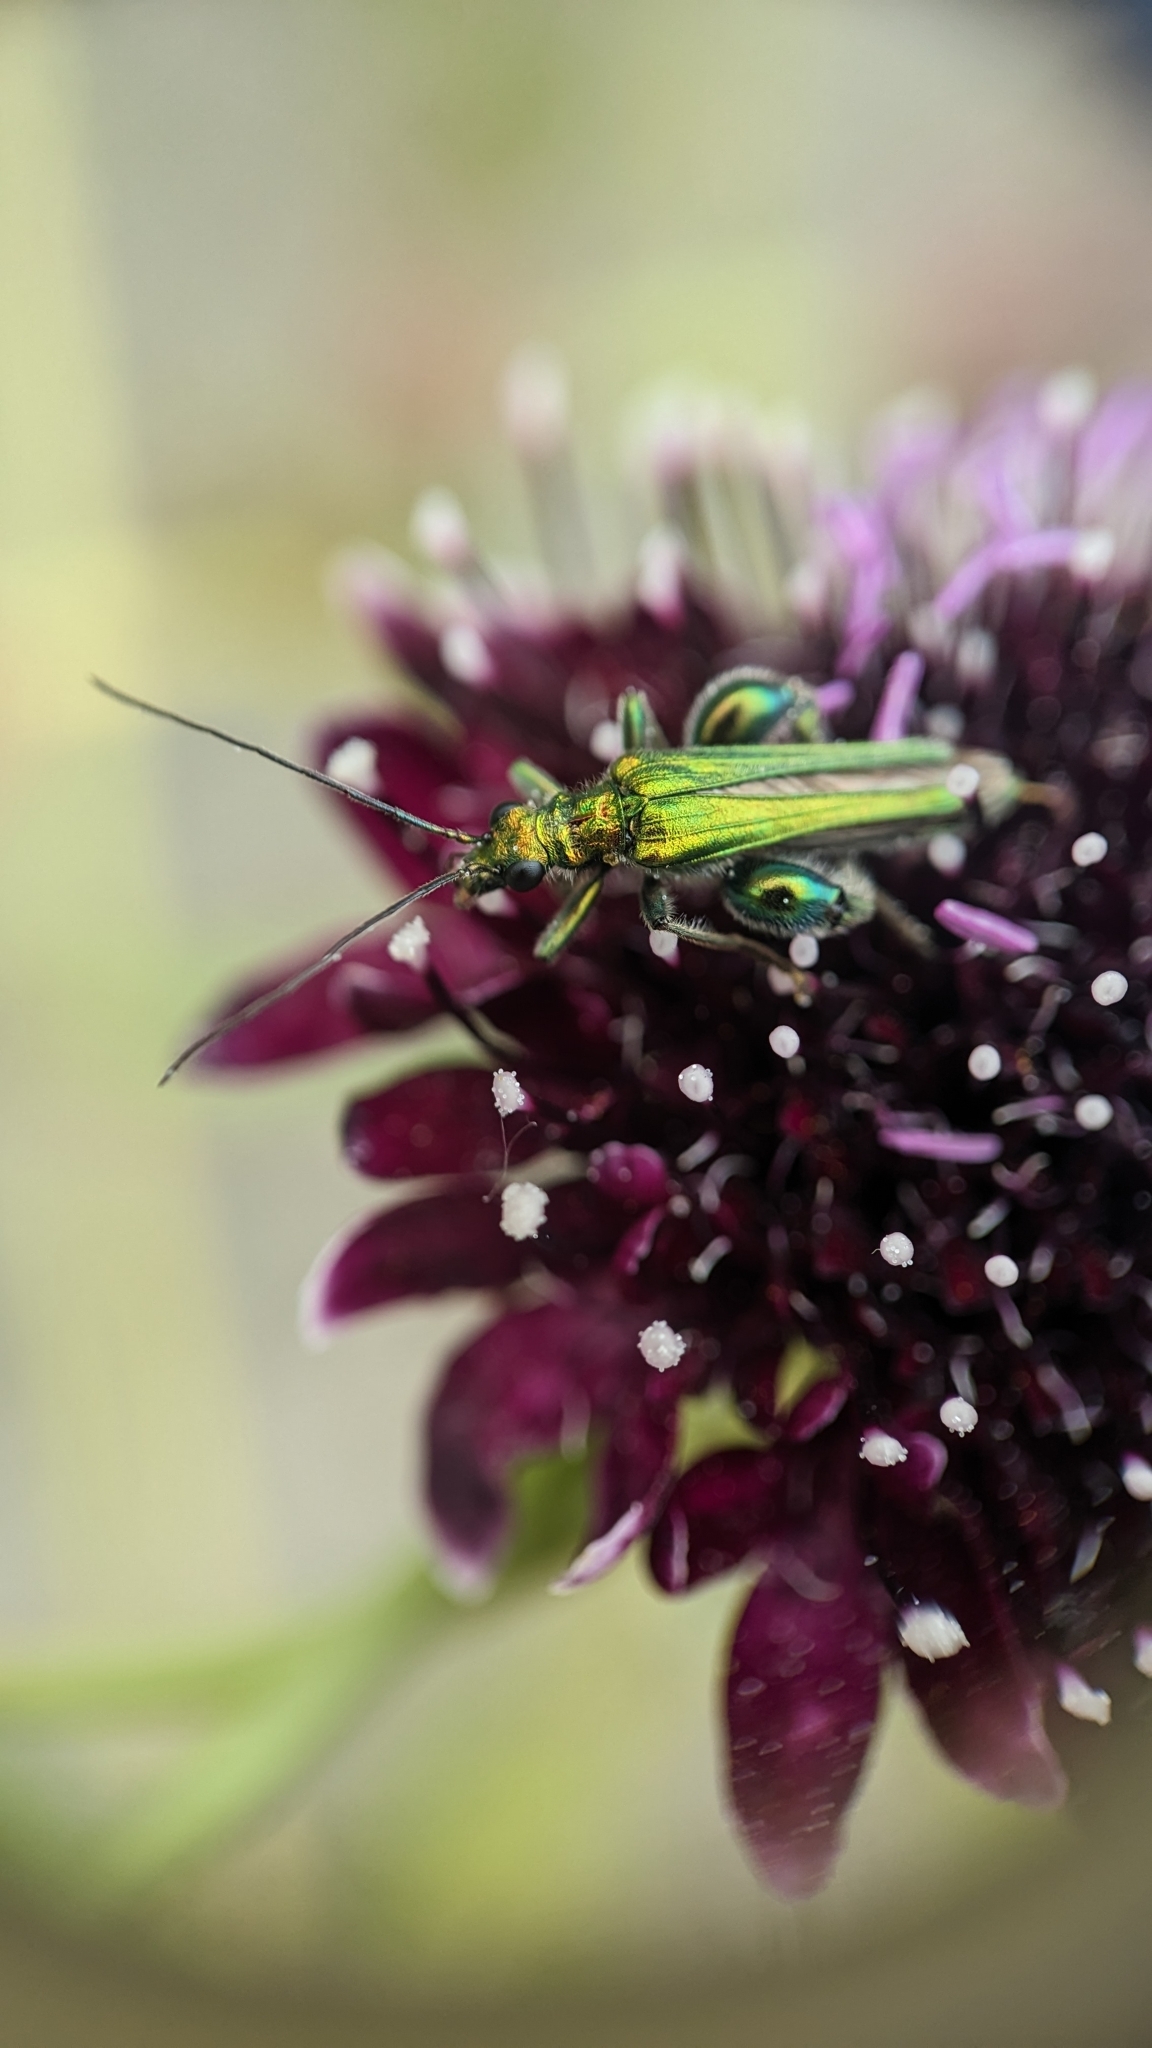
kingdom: Animalia
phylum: Arthropoda
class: Insecta
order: Coleoptera
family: Oedemeridae
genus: Oedemera
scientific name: Oedemera nobilis
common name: Swollen-thighed beetle
